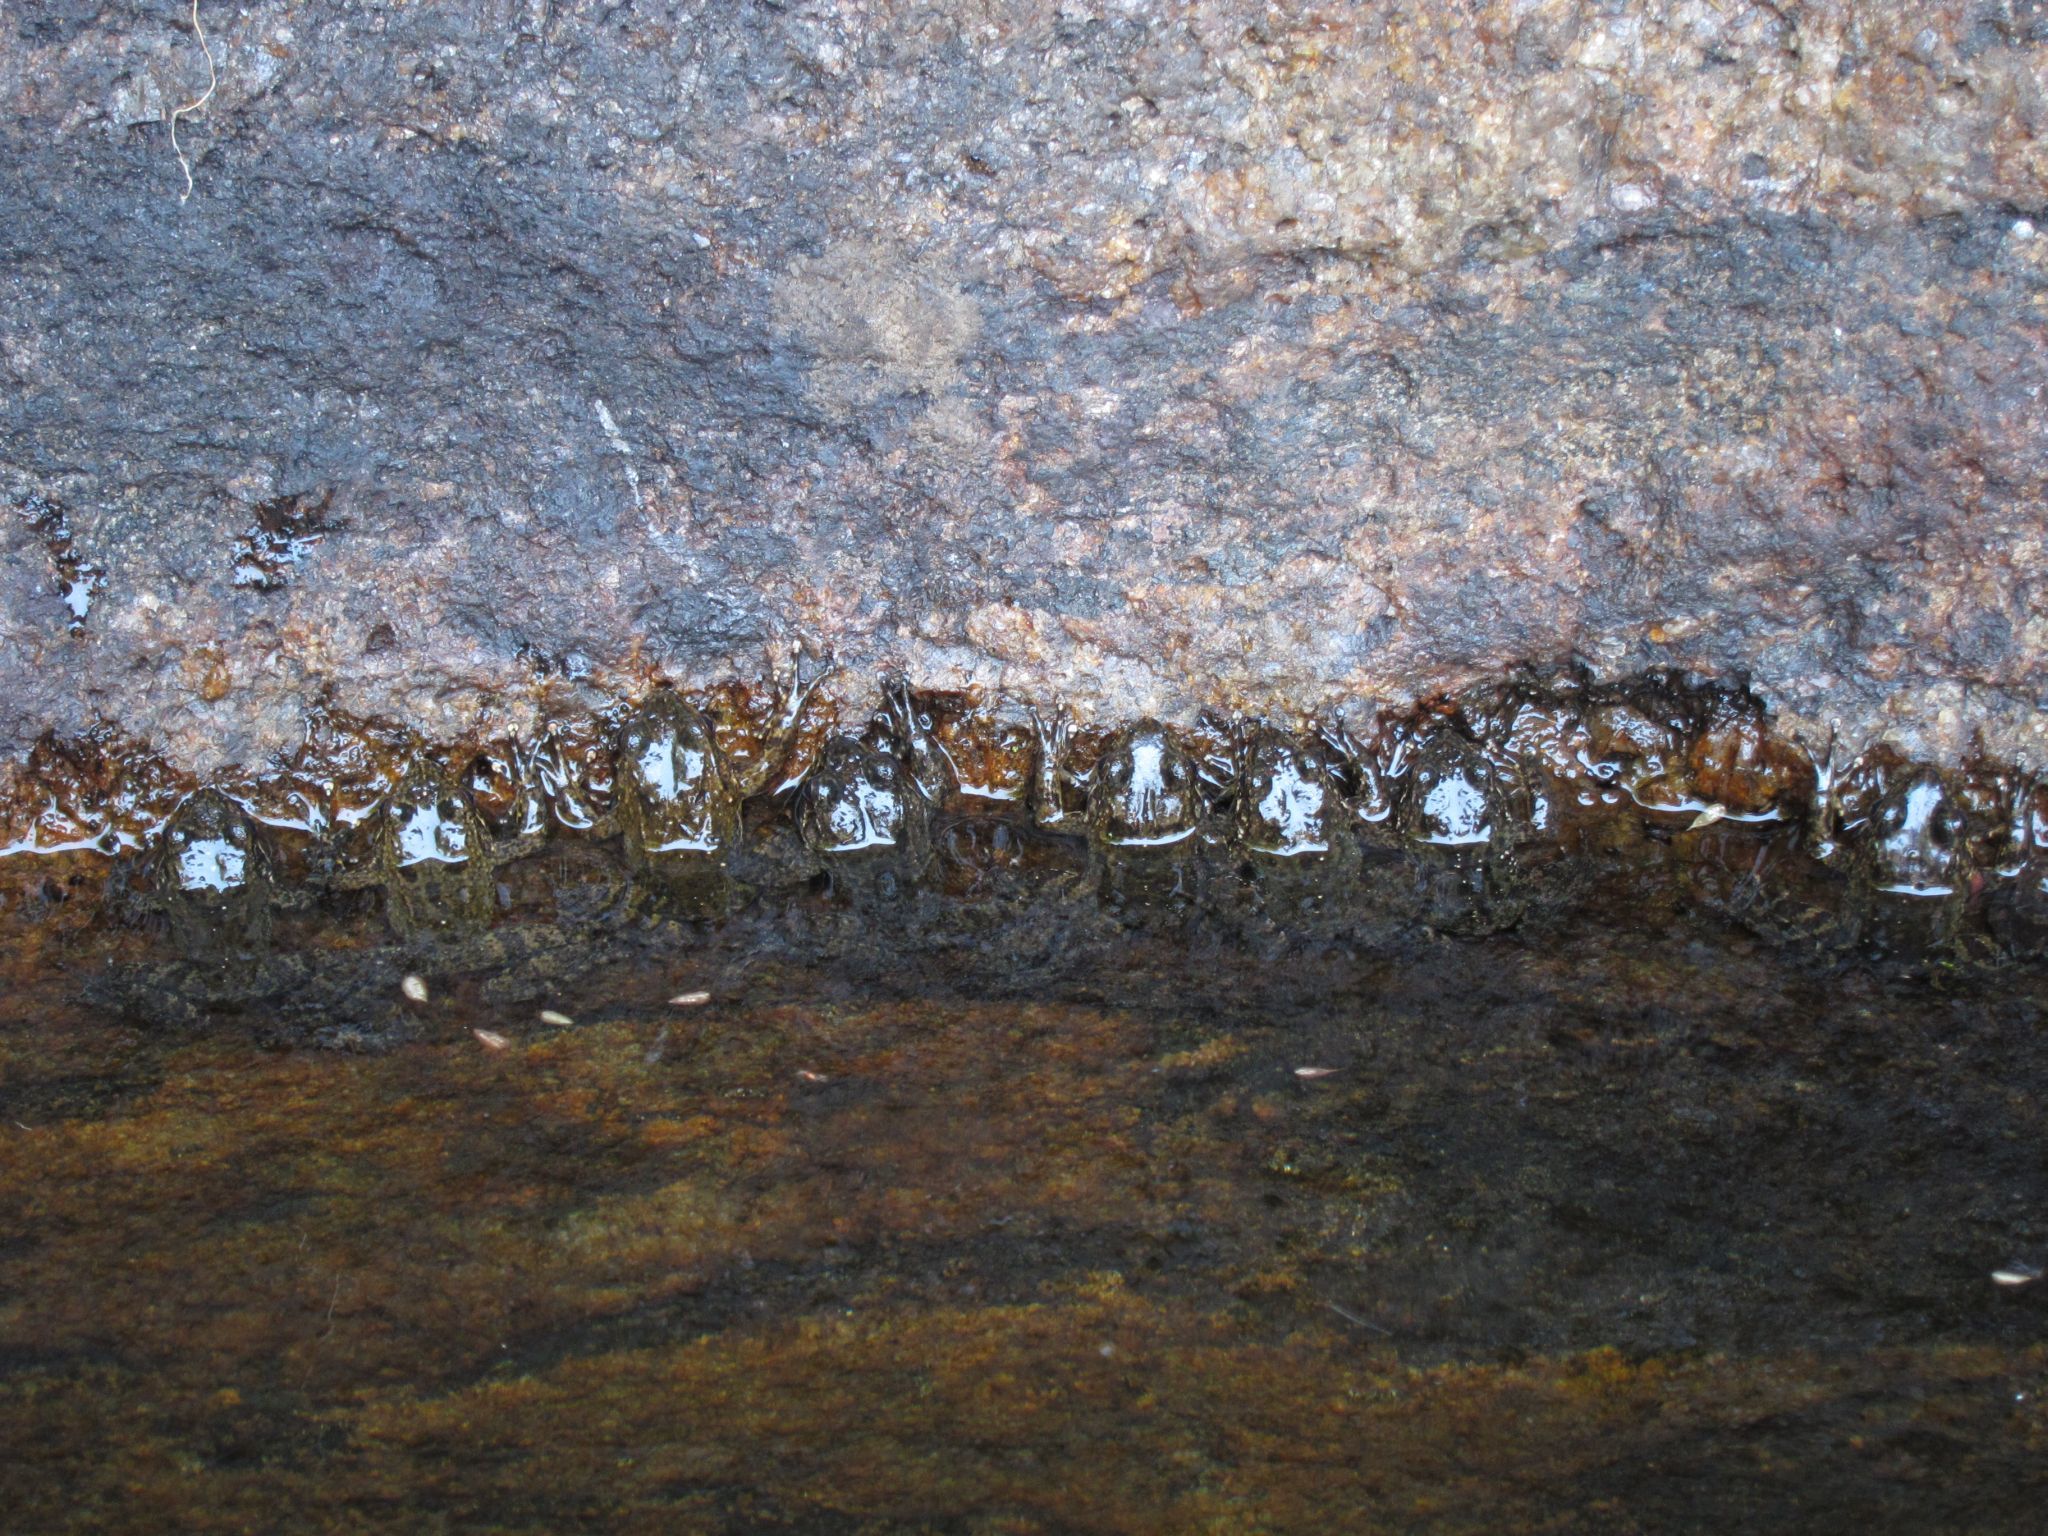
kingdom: Animalia
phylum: Chordata
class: Amphibia
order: Anura
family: Mantellidae
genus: Mantidactylus
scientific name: Mantidactylus bourgati
